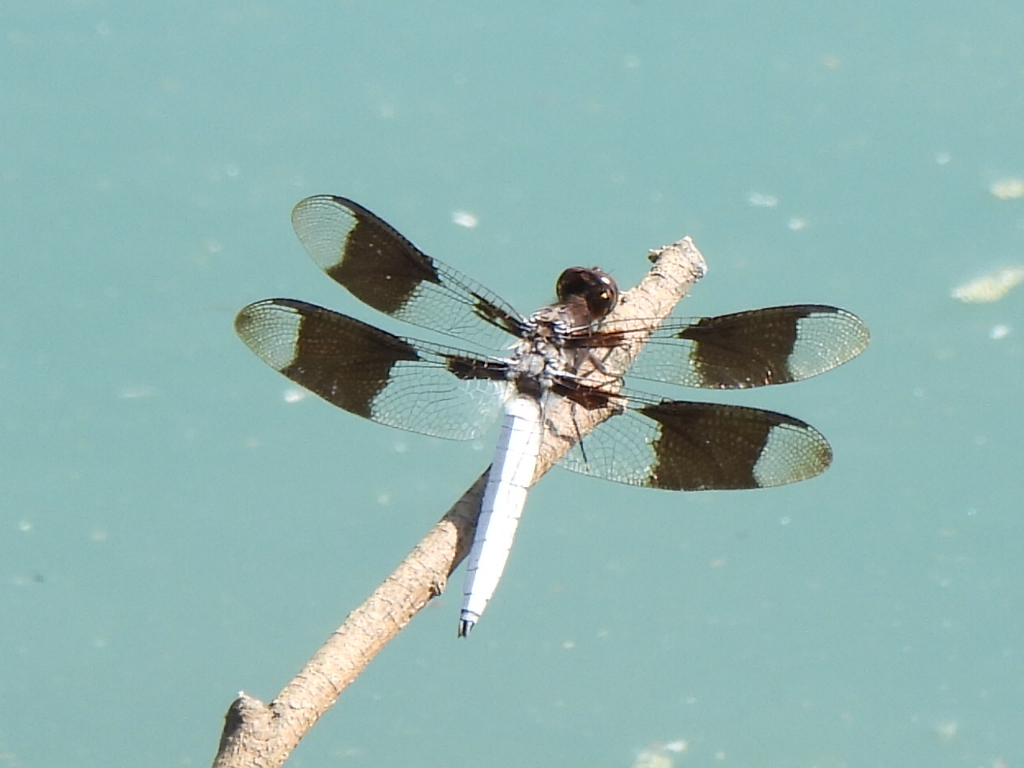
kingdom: Animalia
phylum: Arthropoda
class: Insecta
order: Odonata
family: Libellulidae
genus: Plathemis
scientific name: Plathemis lydia
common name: Common whitetail
